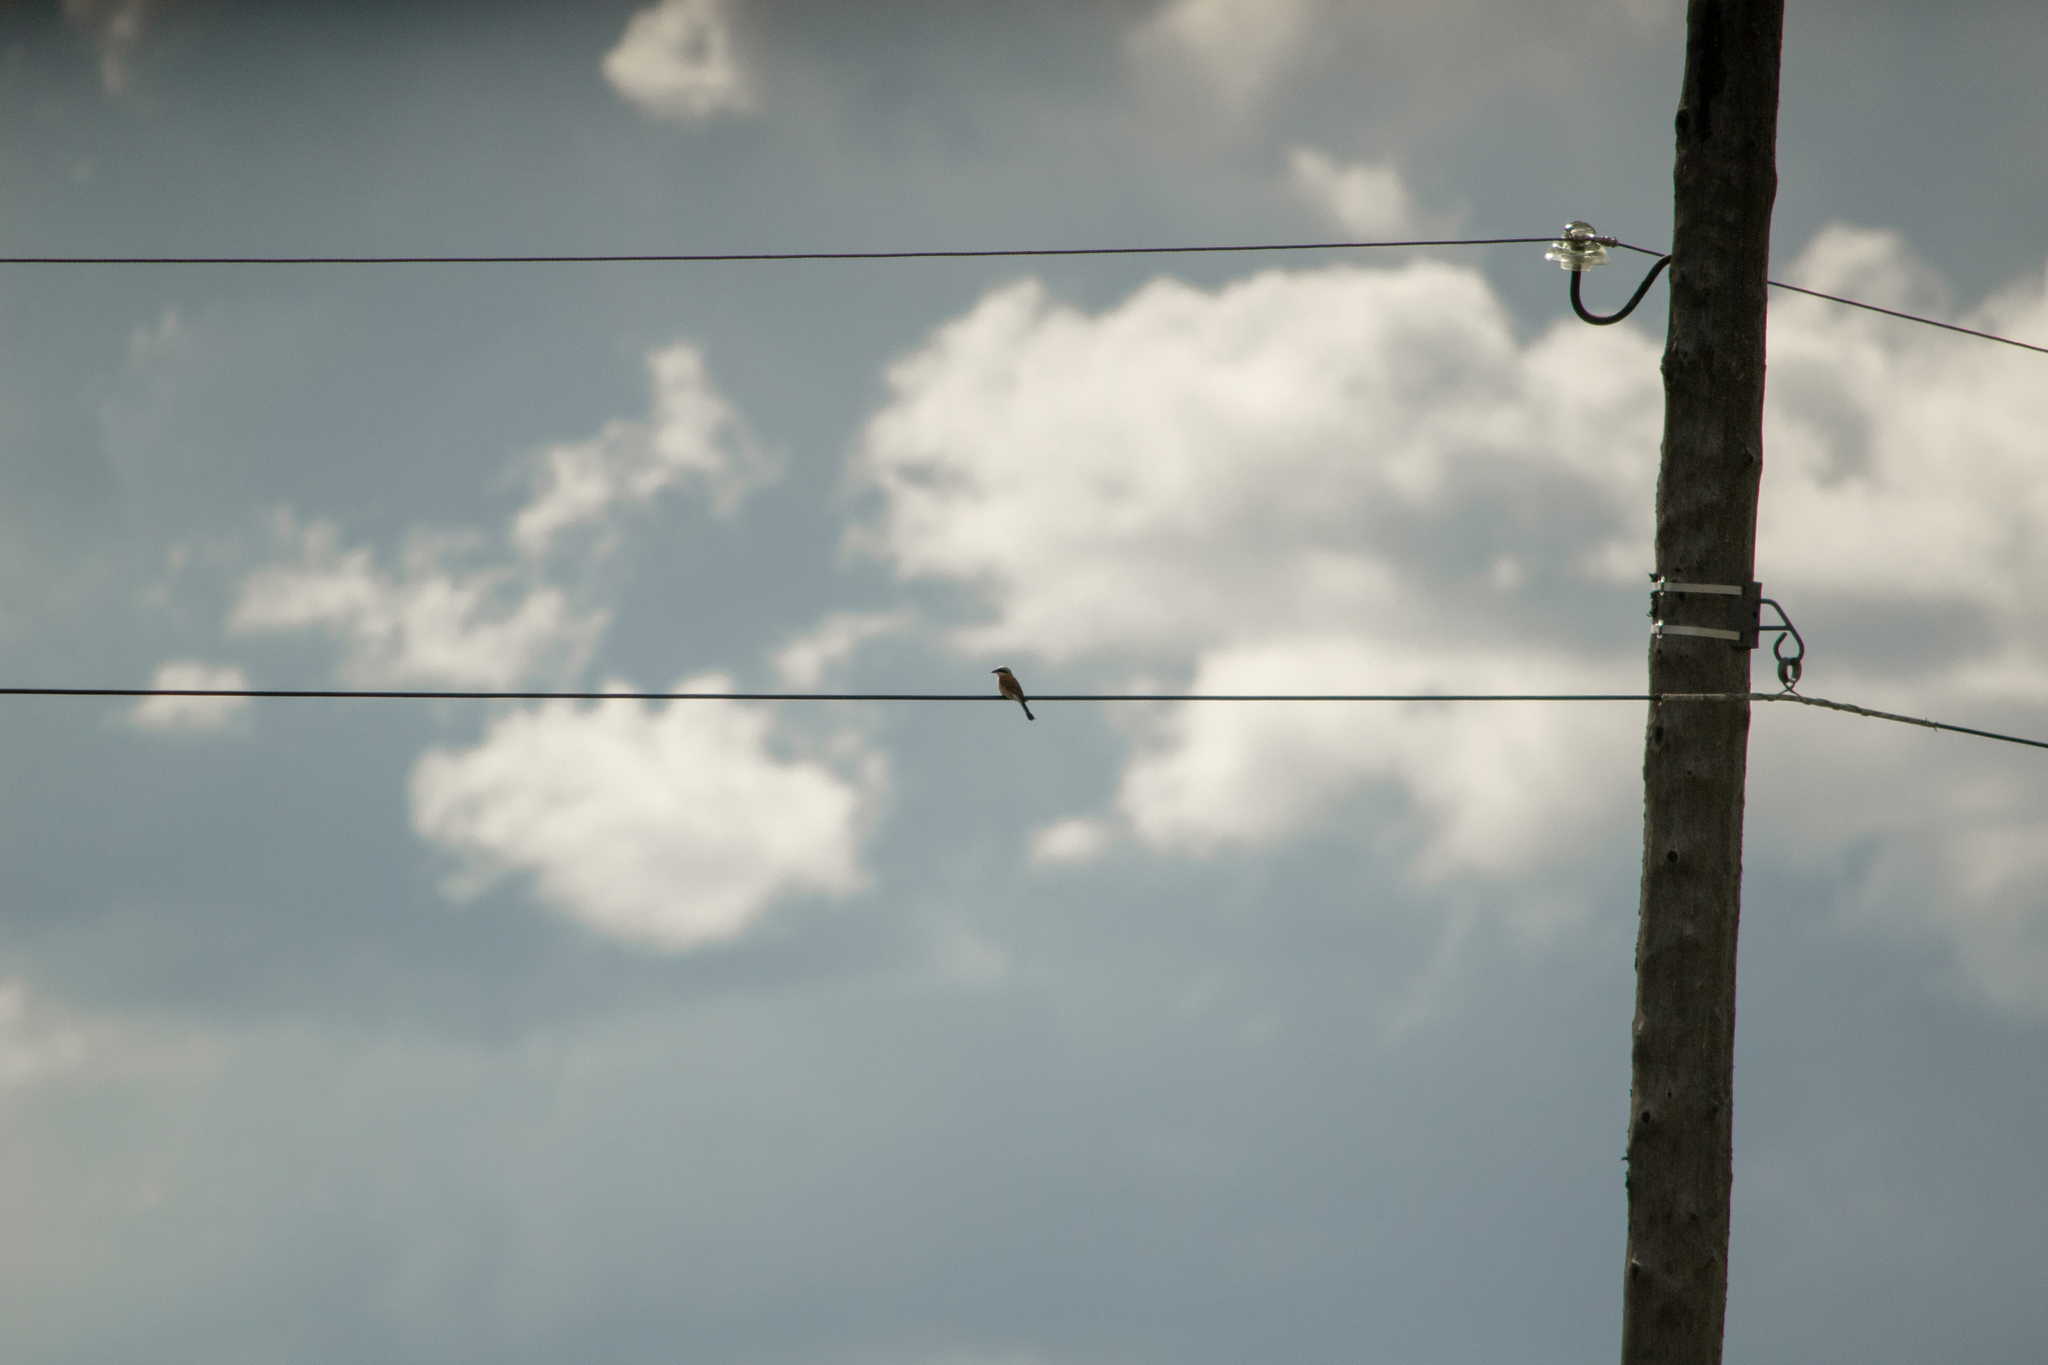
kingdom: Animalia
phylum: Chordata
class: Aves
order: Passeriformes
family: Laniidae
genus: Lanius
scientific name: Lanius collurio
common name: Red-backed shrike
